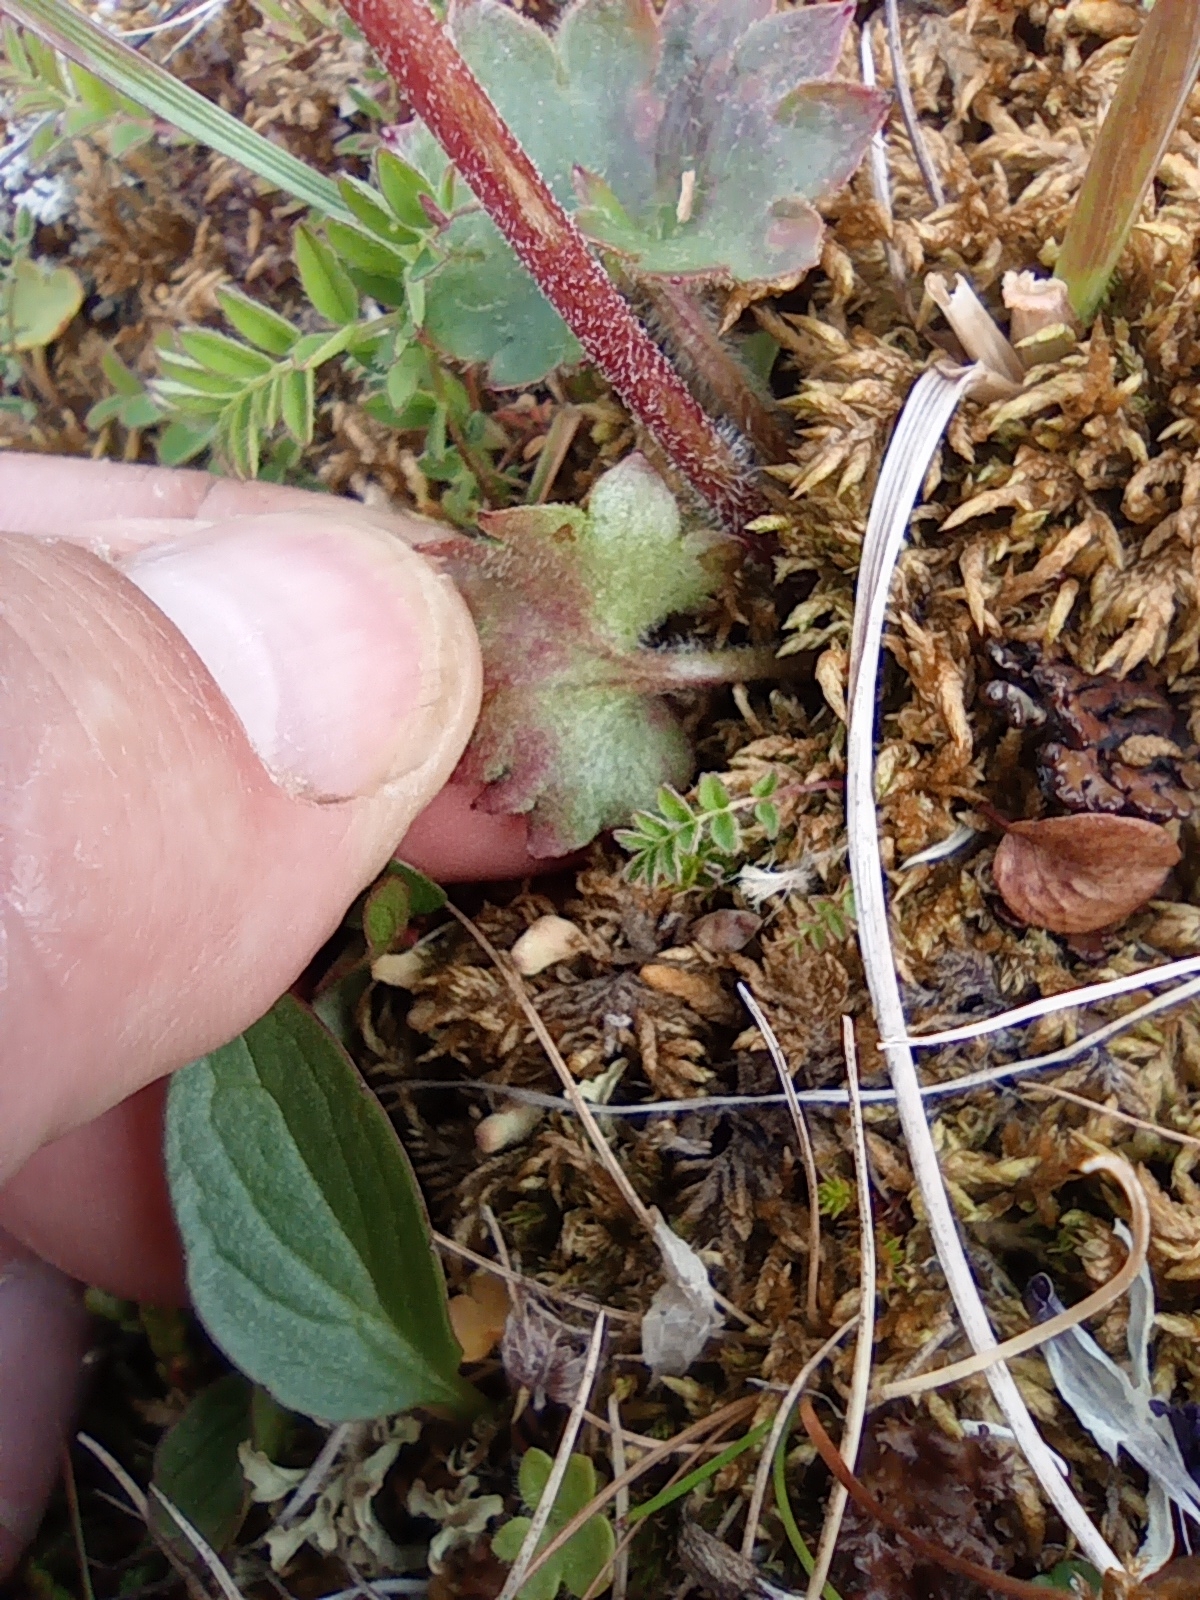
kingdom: Plantae
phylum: Tracheophyta
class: Magnoliopsida
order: Saxifragales
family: Saxifragaceae
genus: Micranthes
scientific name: Micranthes nelsoniana
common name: Nelson's saxifrage
